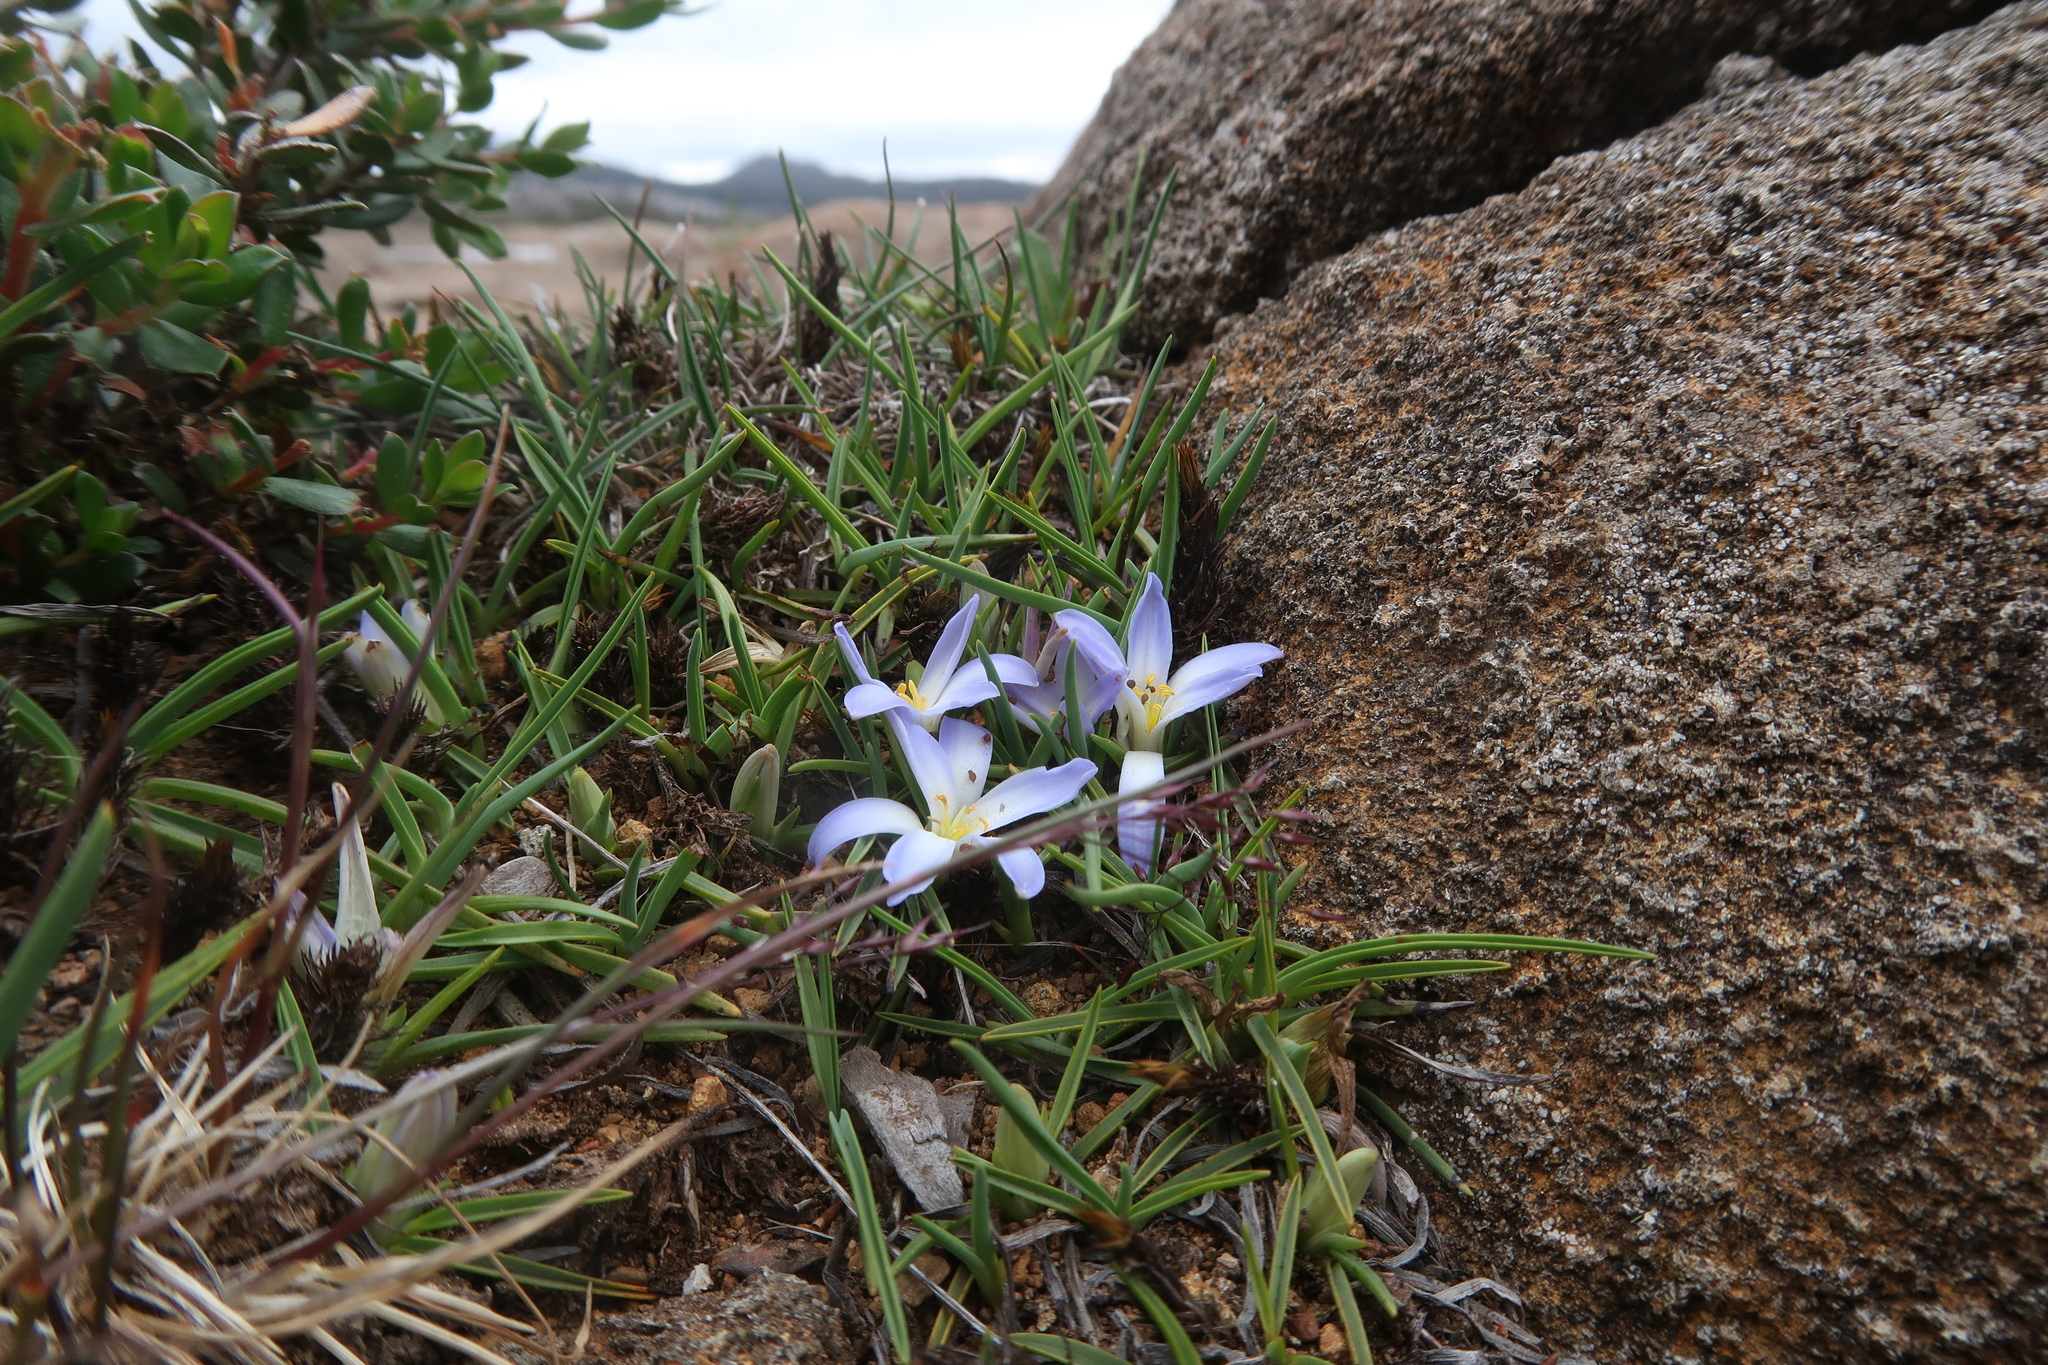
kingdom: Plantae
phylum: Tracheophyta
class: Liliopsida
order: Asparagales
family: Asphodelaceae
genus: Herpolirion
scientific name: Herpolirion novae-zelandiae
